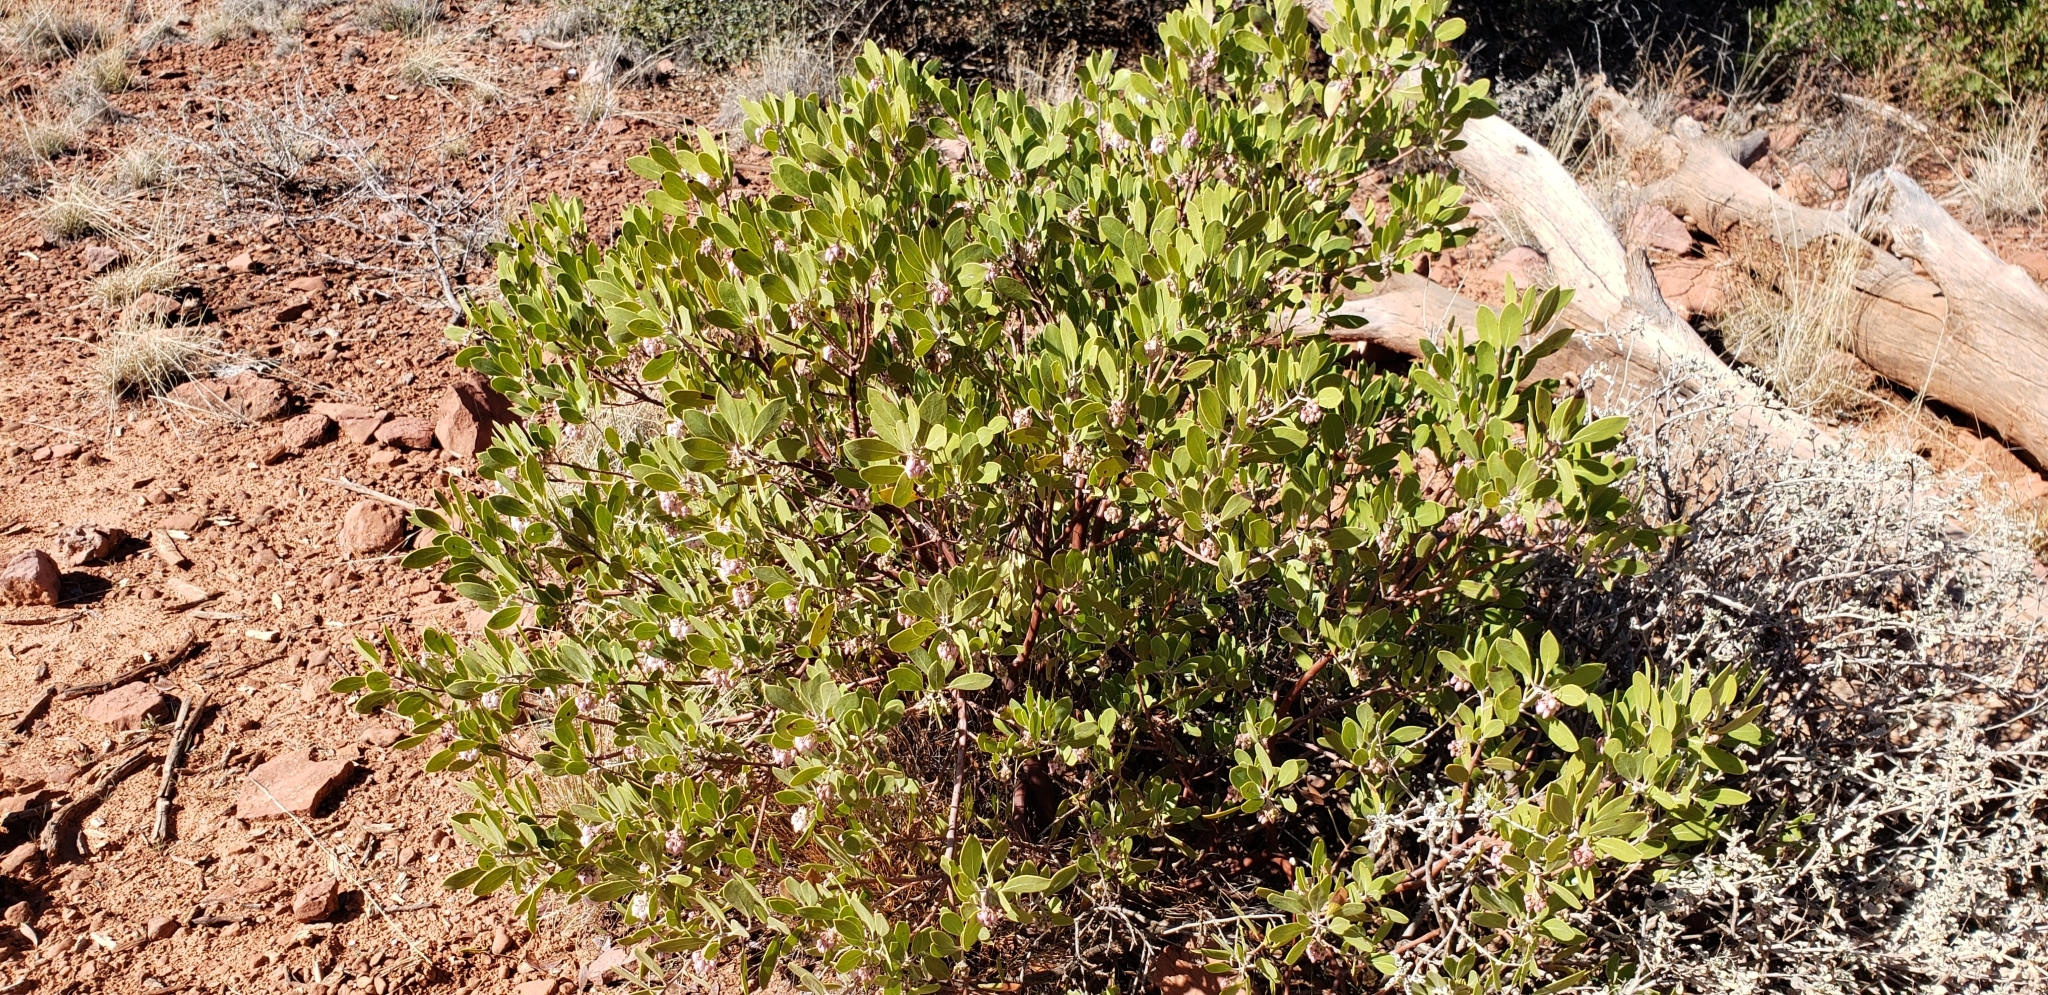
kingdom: Plantae
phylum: Tracheophyta
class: Magnoliopsida
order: Ericales
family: Ericaceae
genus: Arctostaphylos
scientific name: Arctostaphylos pungens
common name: Mexican manzanita
